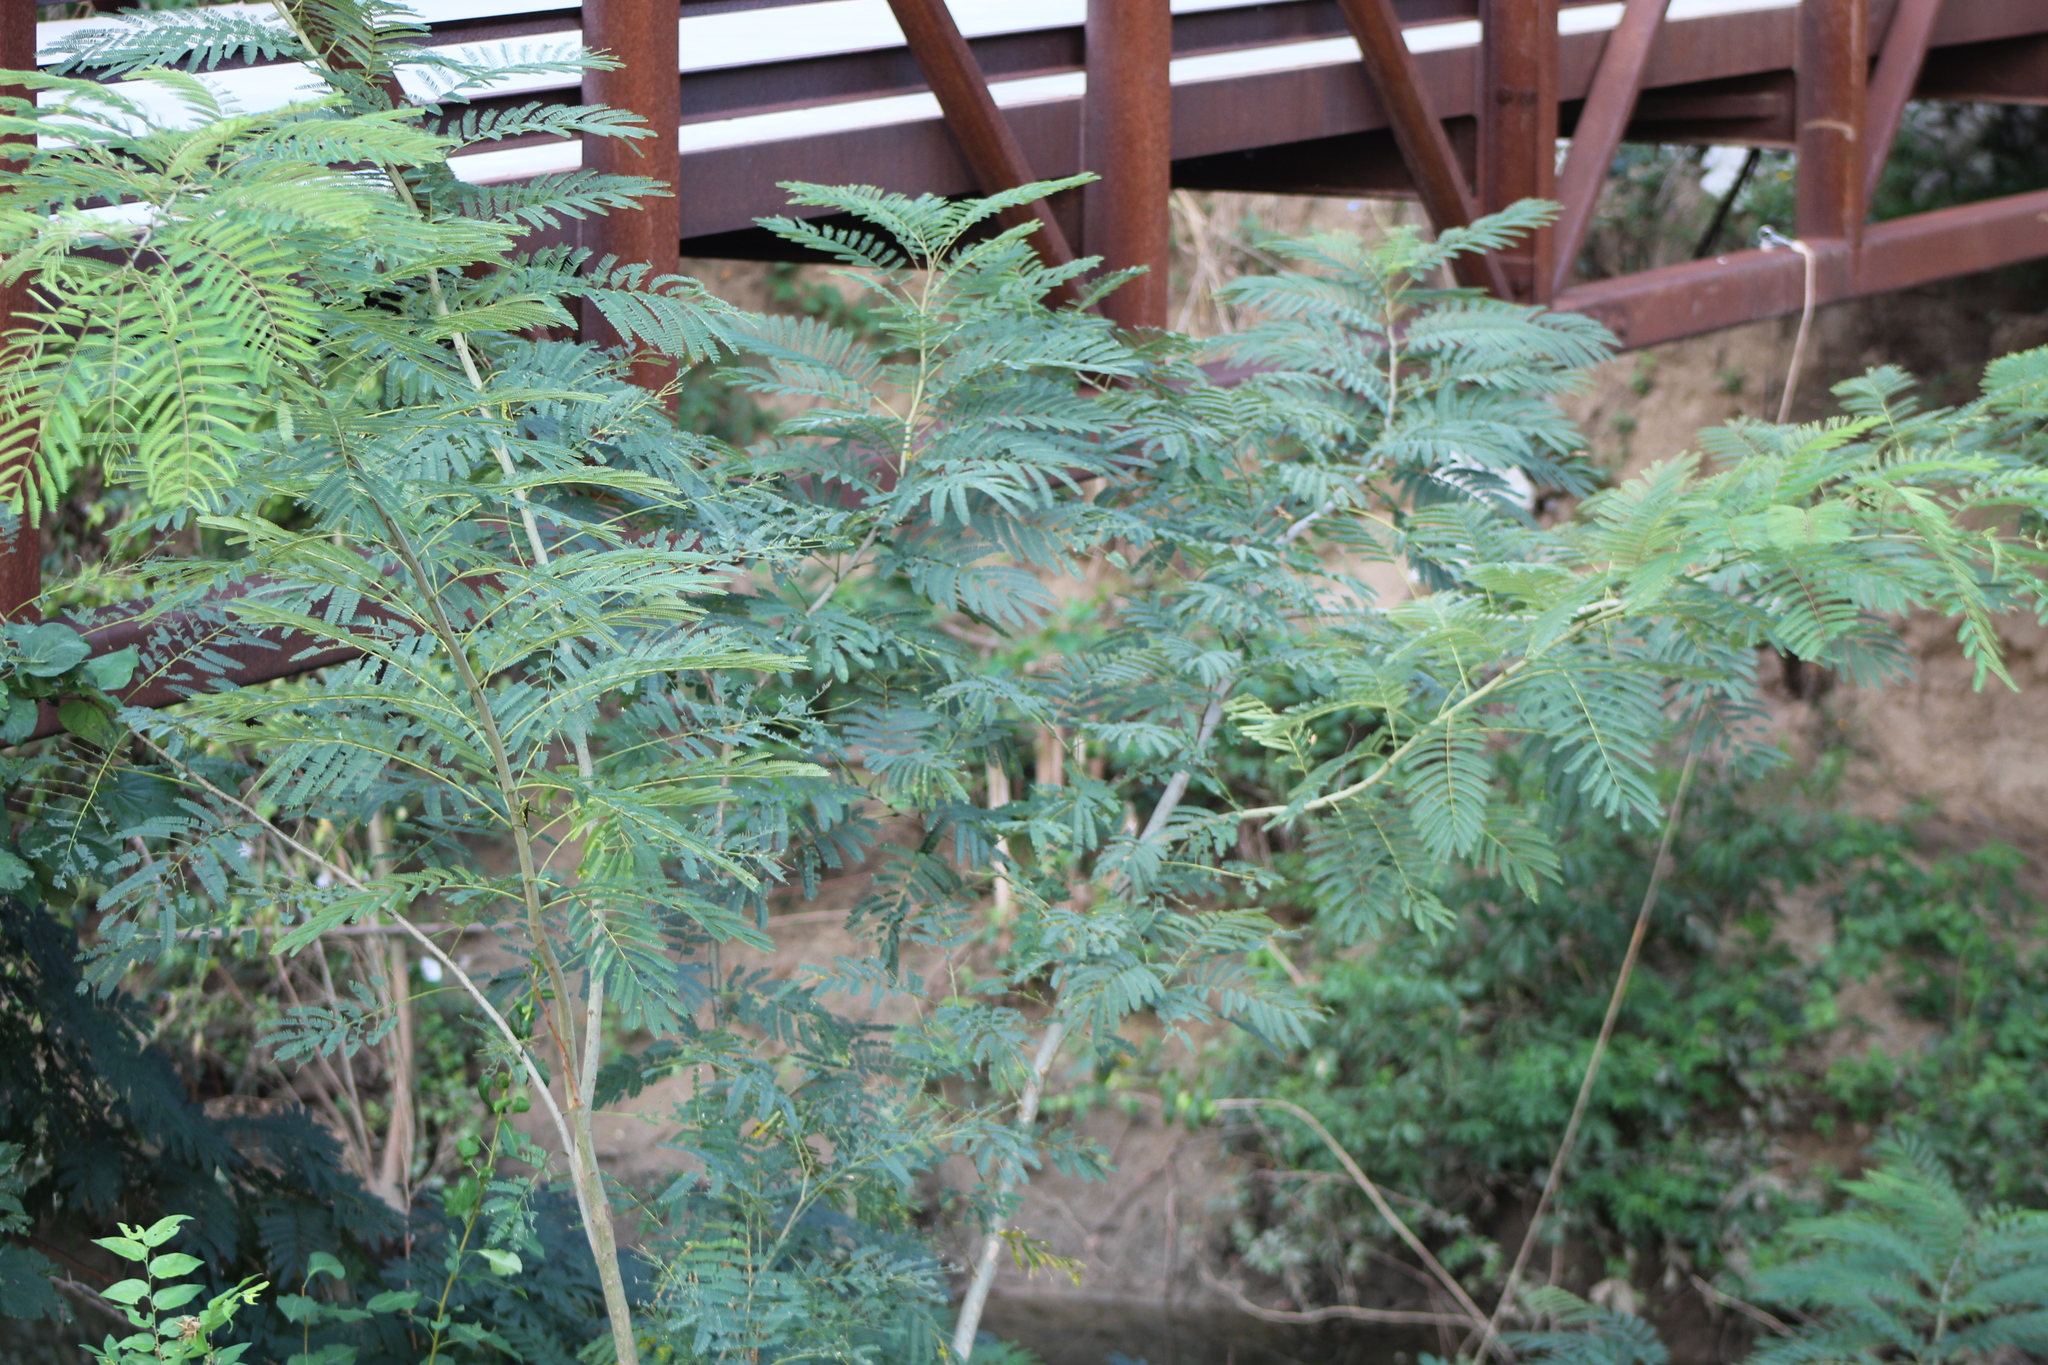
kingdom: Plantae
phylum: Tracheophyta
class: Magnoliopsida
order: Fabales
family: Fabaceae
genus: Albizia
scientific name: Albizia julibrissin
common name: Silktree
